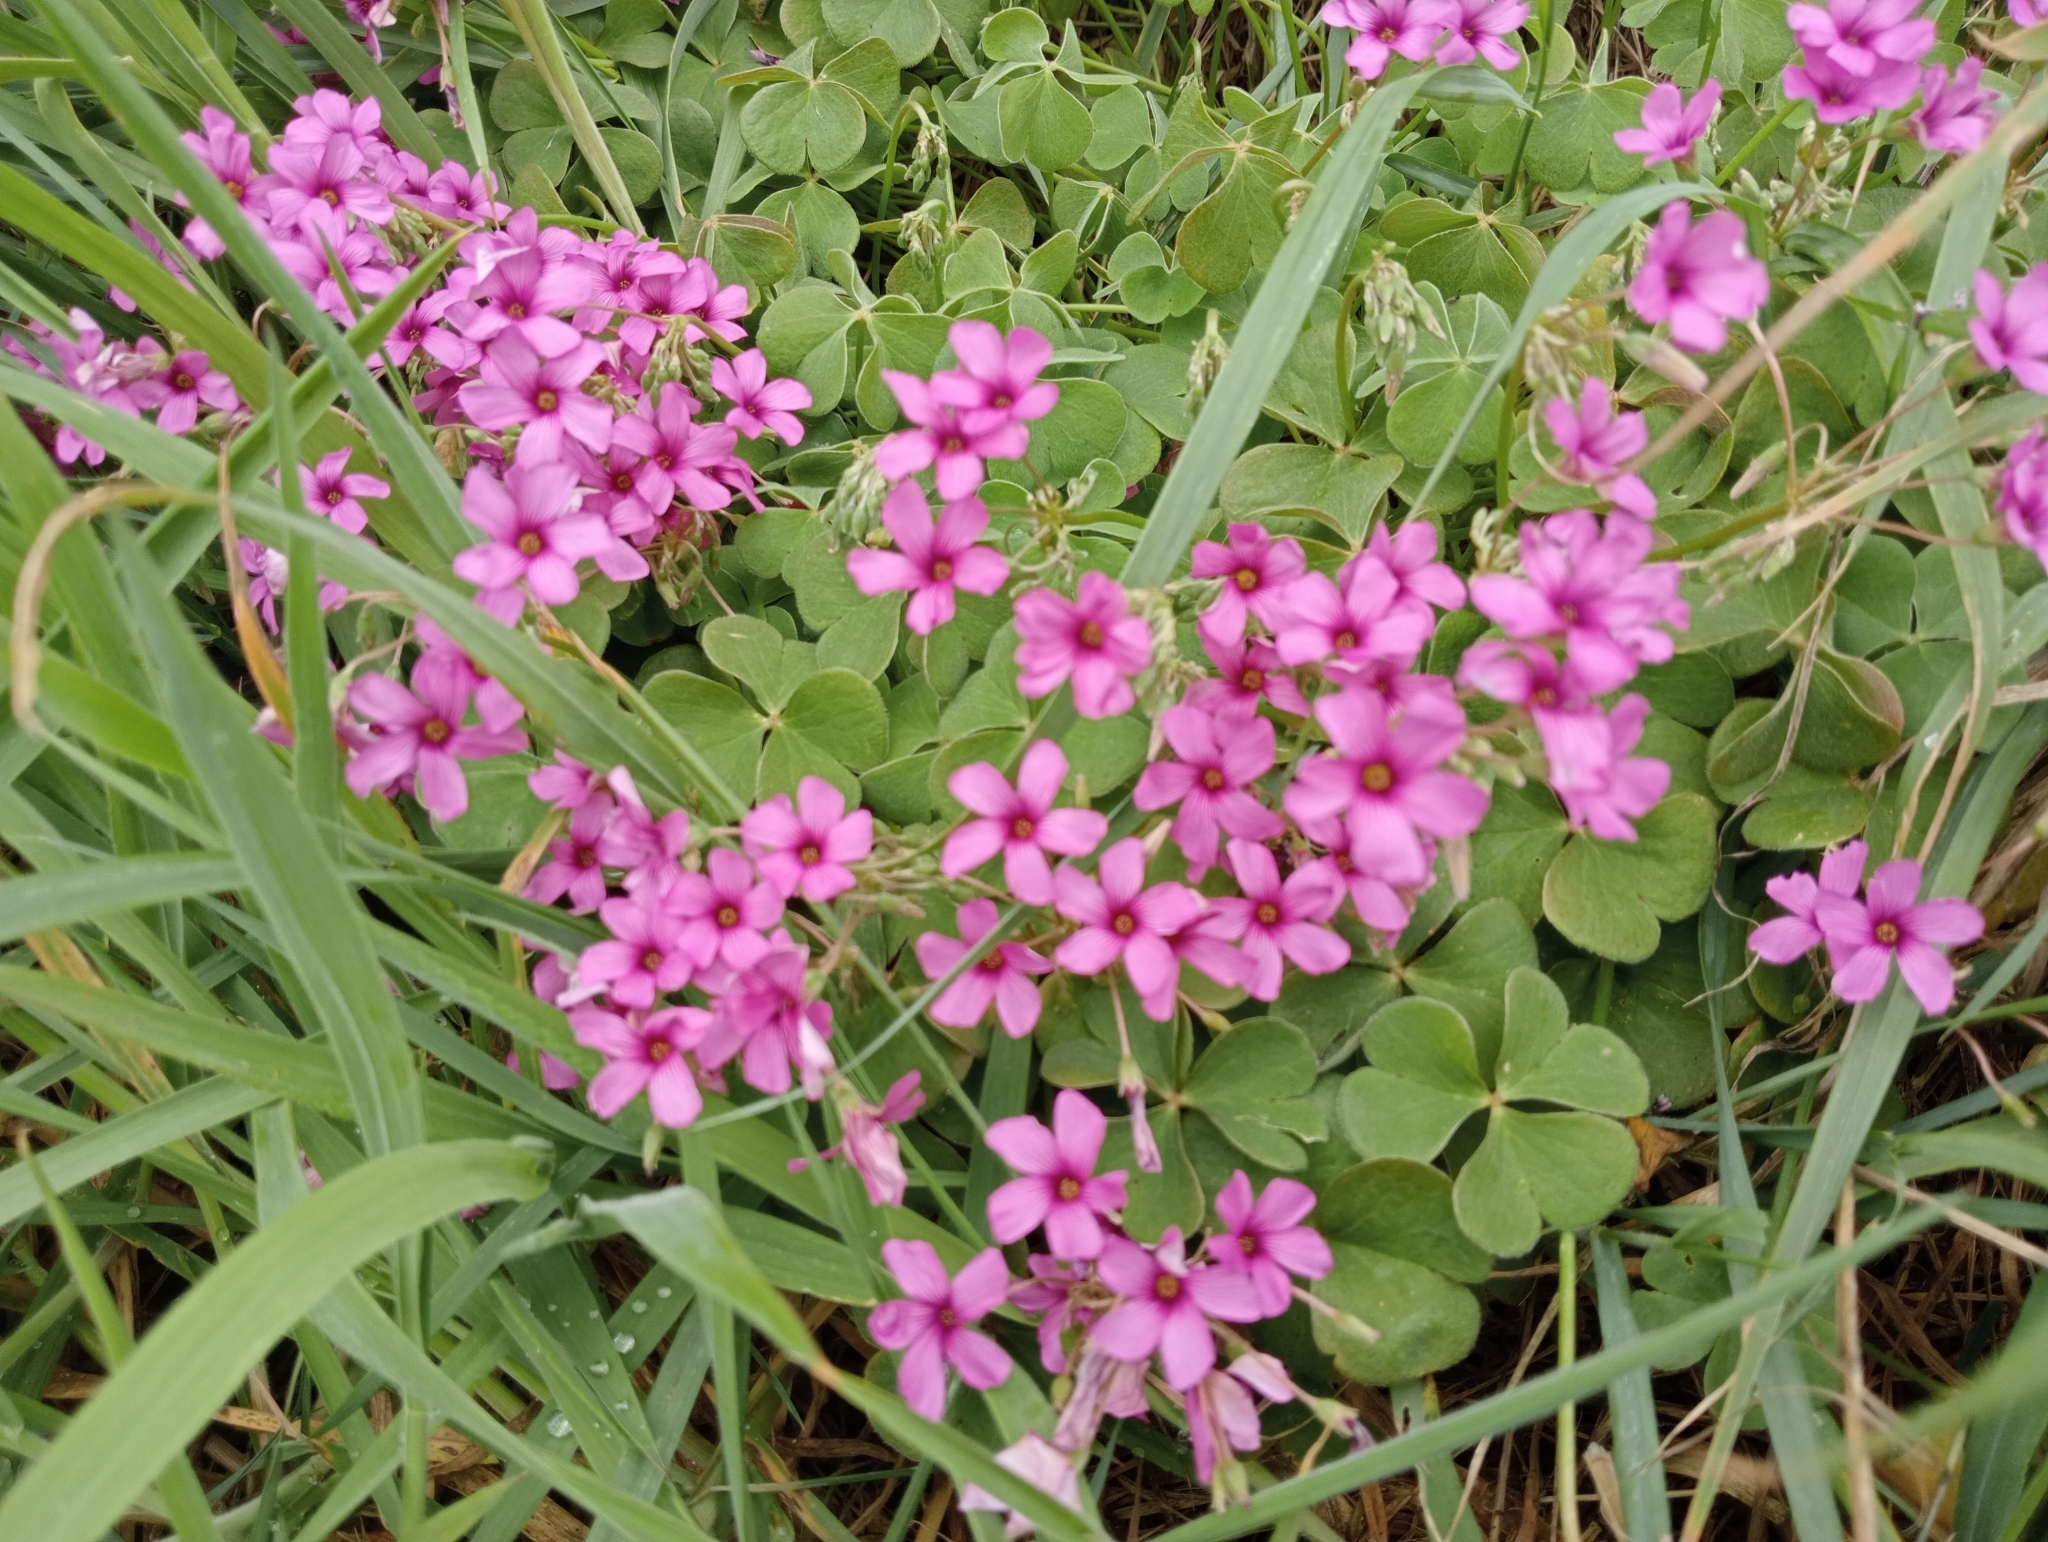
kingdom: Plantae
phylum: Tracheophyta
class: Magnoliopsida
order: Oxalidales
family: Oxalidaceae
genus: Oxalis
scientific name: Oxalis articulata
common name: Pink-sorrel
